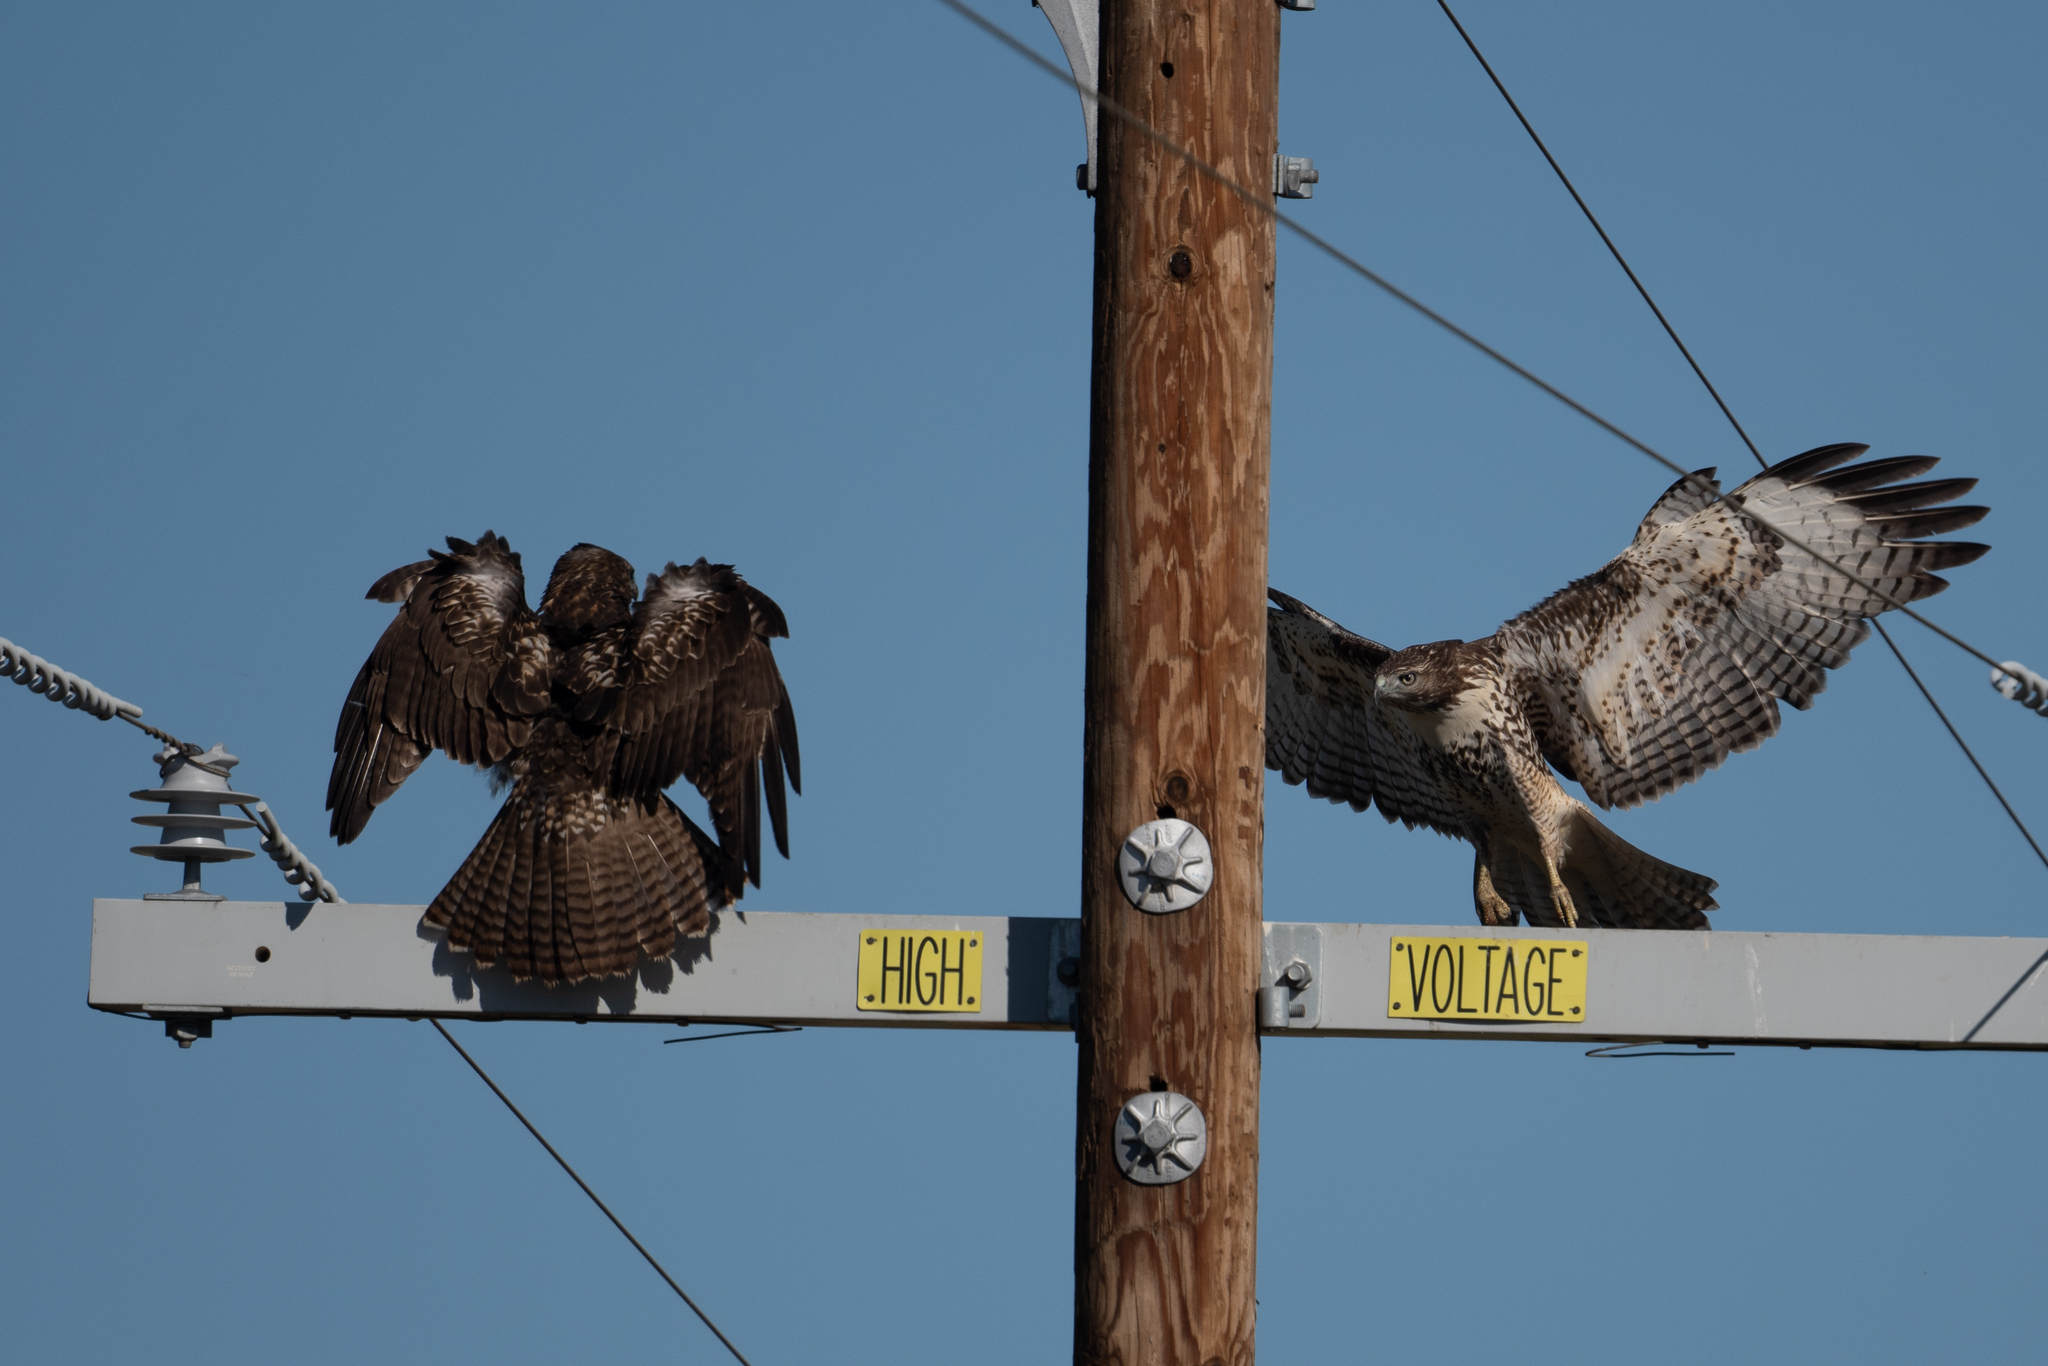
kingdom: Animalia
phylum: Chordata
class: Aves
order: Accipitriformes
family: Accipitridae
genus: Buteo
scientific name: Buteo jamaicensis
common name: Red-tailed hawk
